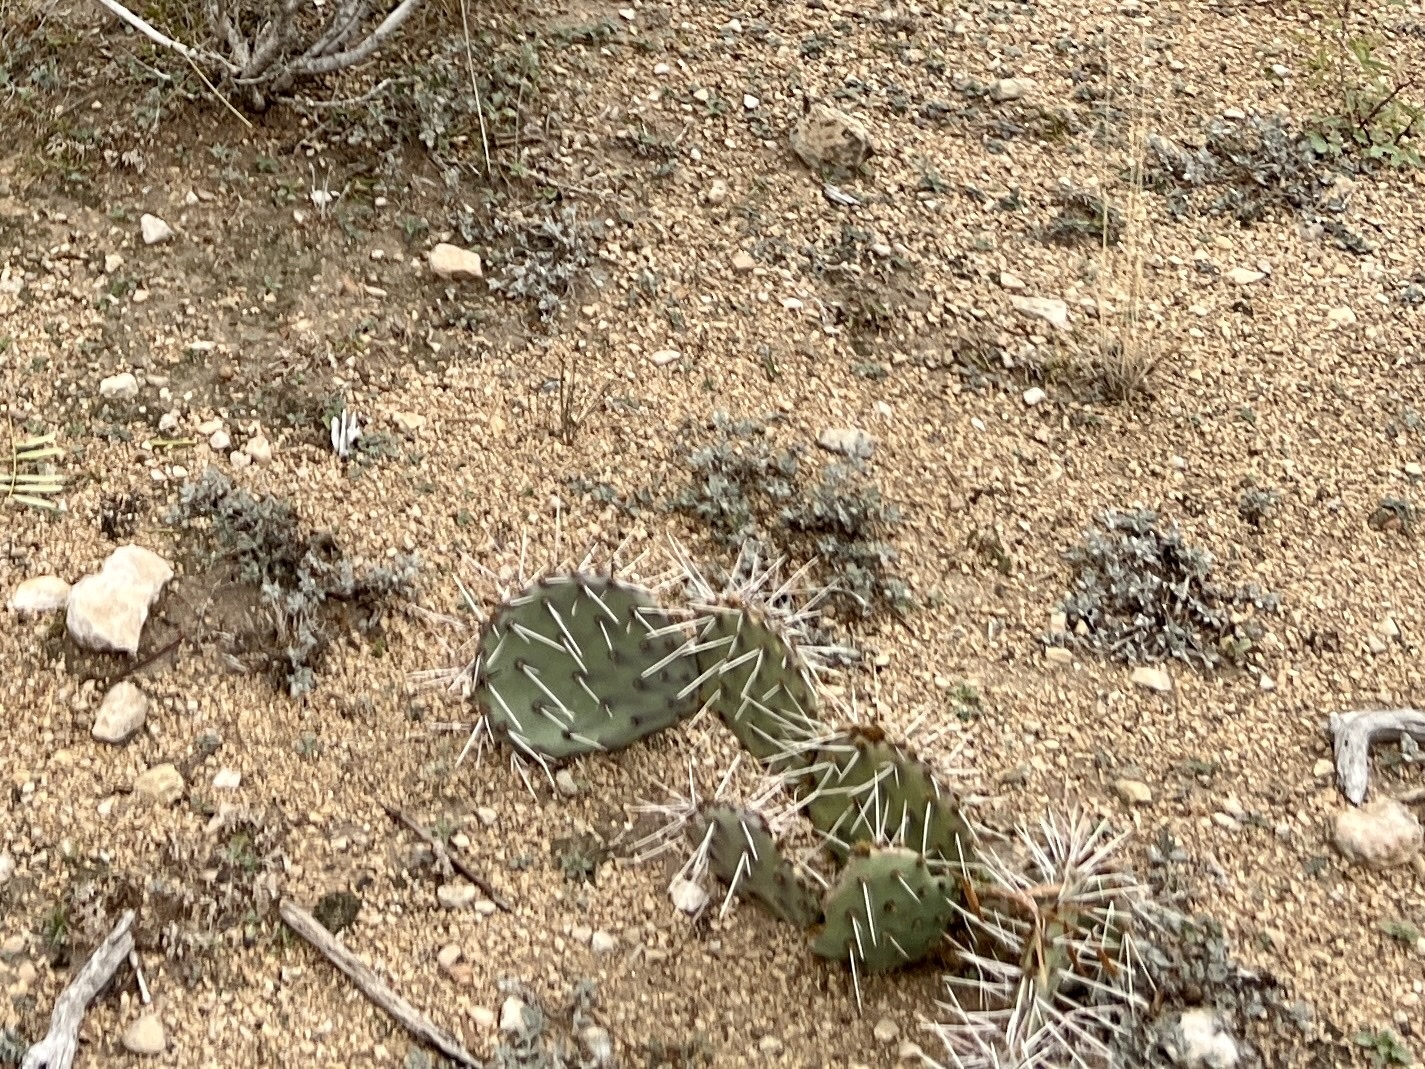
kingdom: Plantae
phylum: Tracheophyta
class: Magnoliopsida
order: Caryophyllales
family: Cactaceae
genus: Opuntia
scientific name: Opuntia macrorhiza
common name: Grassland pricklypear
